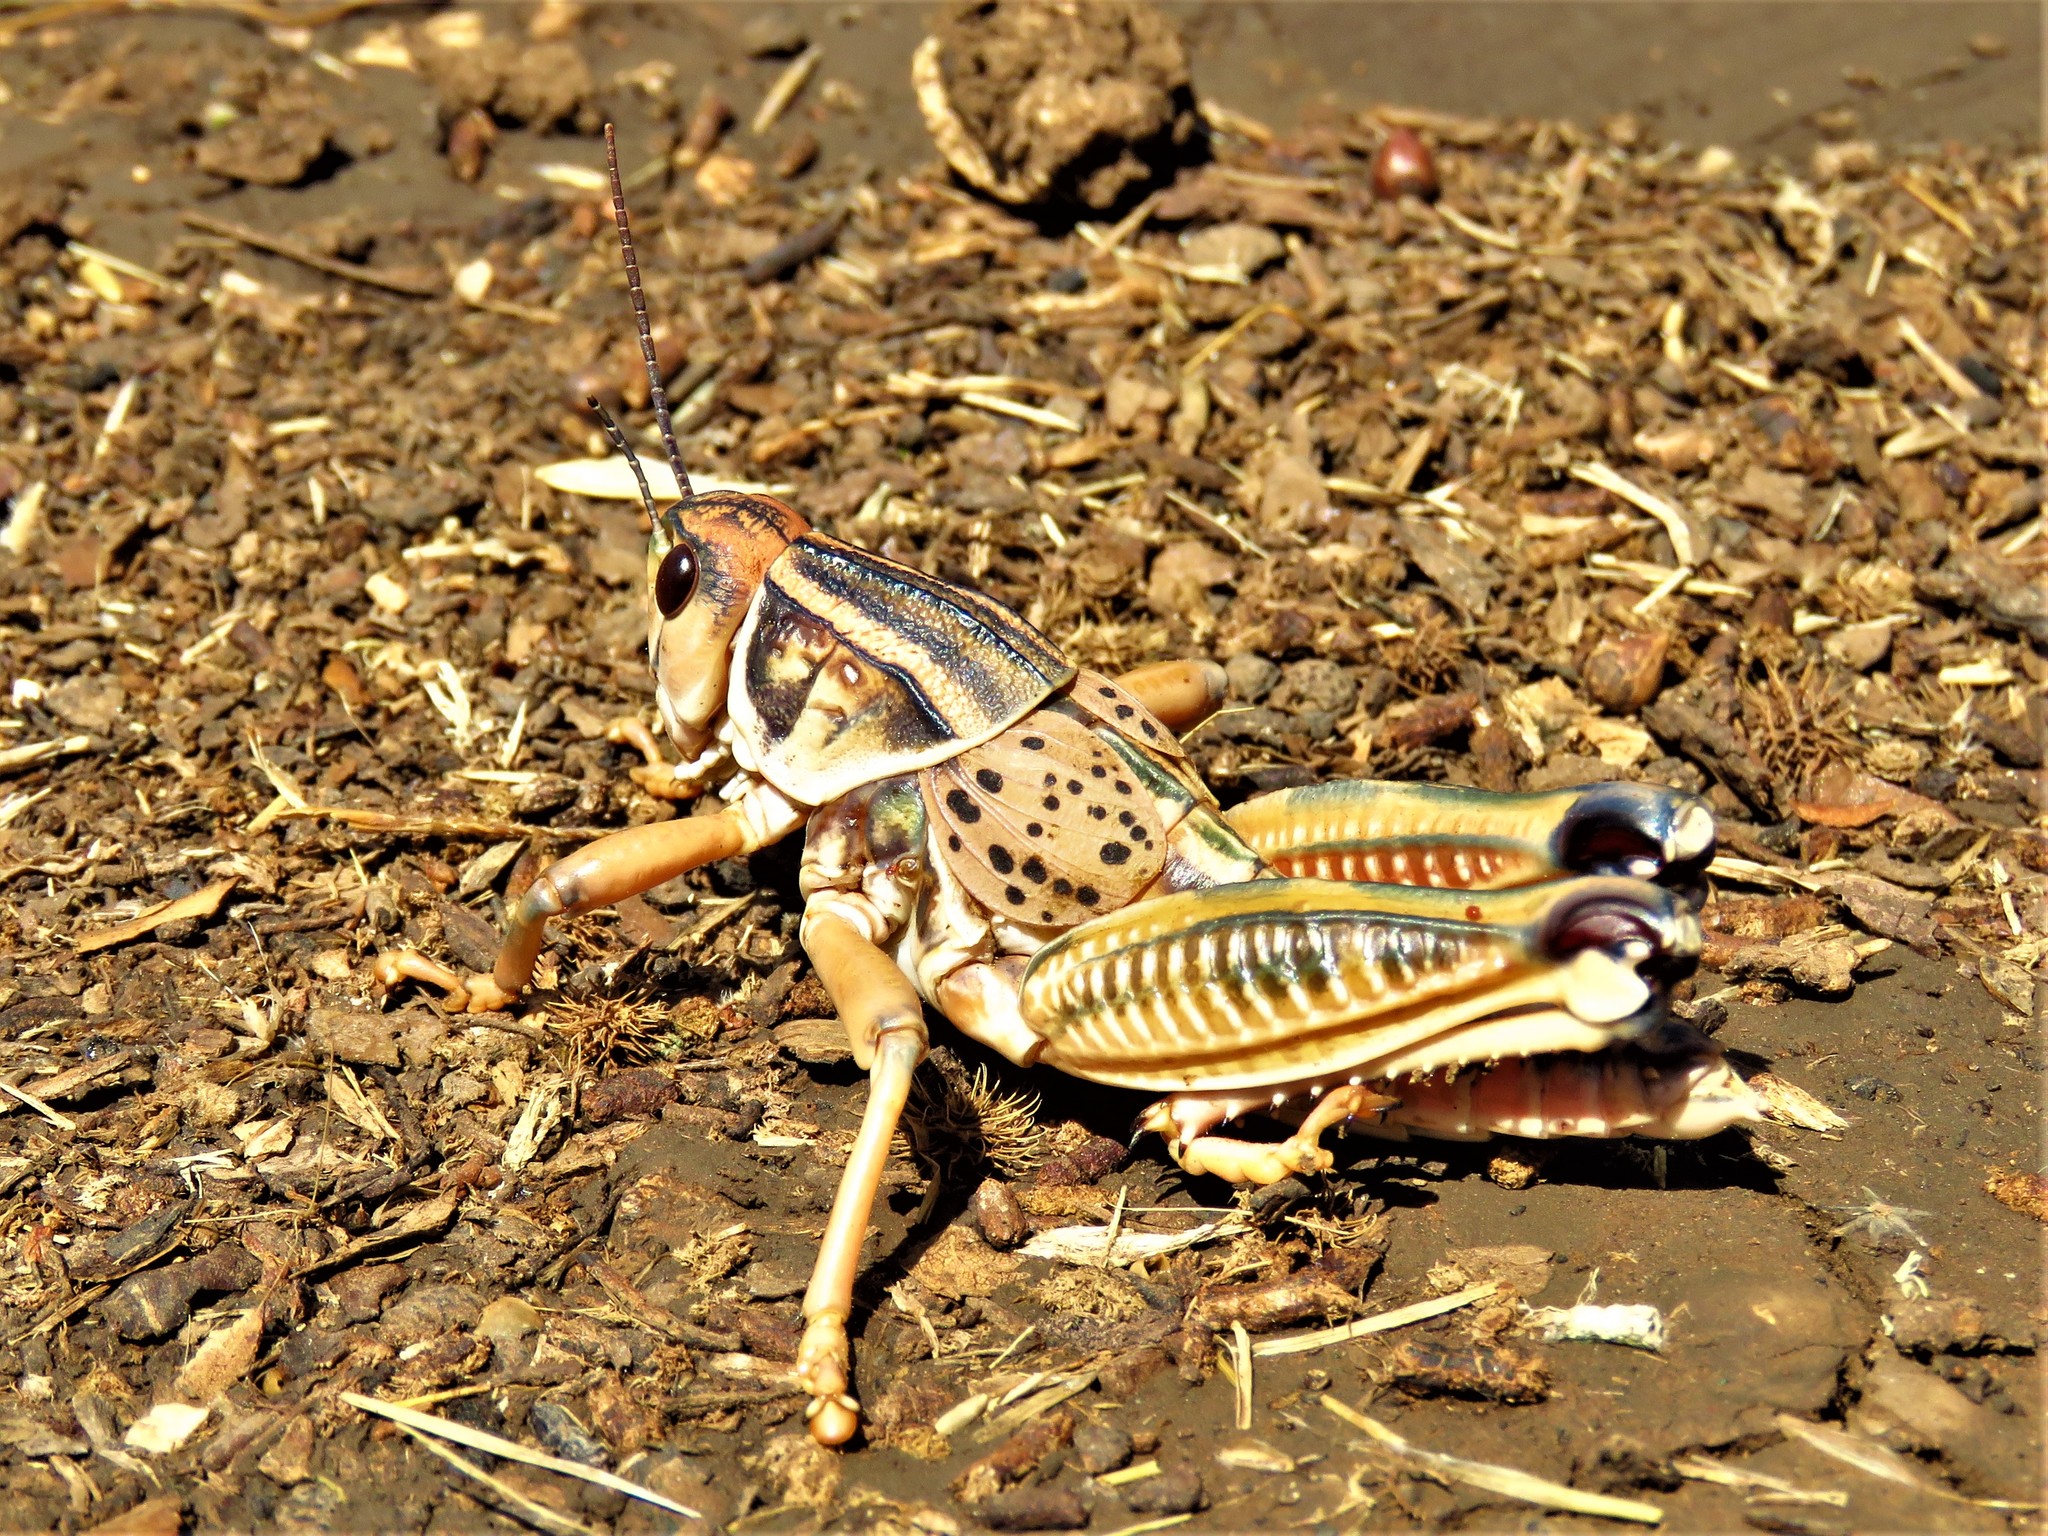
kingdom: Animalia
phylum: Arthropoda
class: Insecta
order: Orthoptera
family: Romaleidae
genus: Brachystola
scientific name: Brachystola magna
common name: Plains lubber grasshopper
